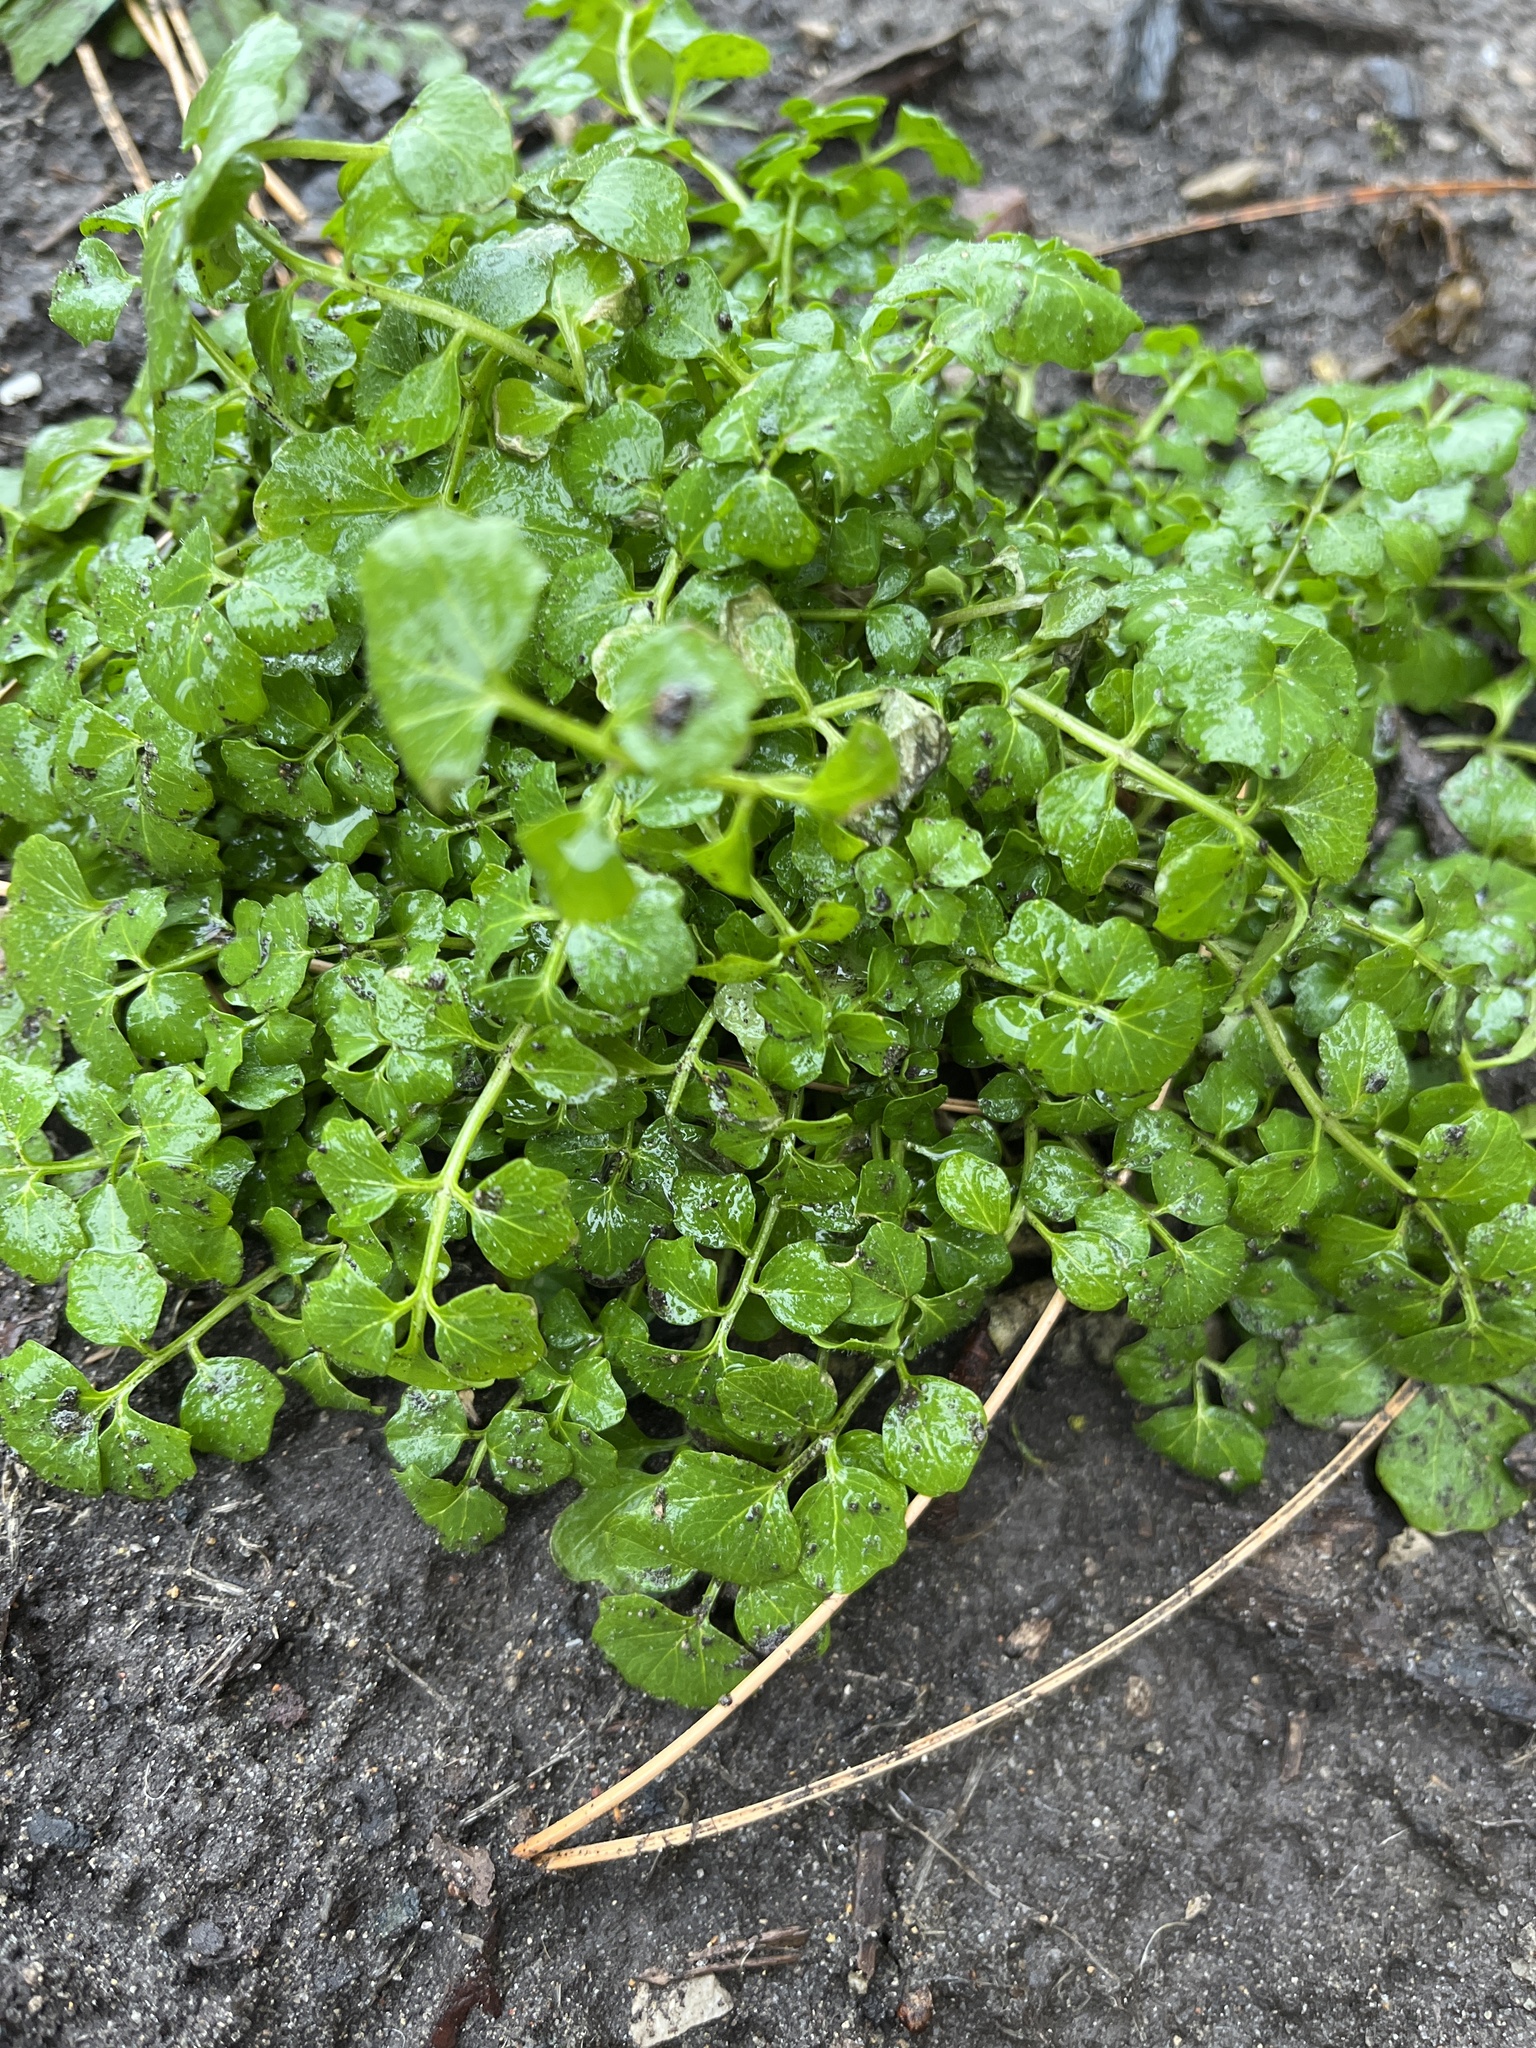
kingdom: Plantae
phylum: Tracheophyta
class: Magnoliopsida
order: Brassicales
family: Brassicaceae
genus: Cardamine
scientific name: Cardamine hirsuta
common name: Hairy bittercress
